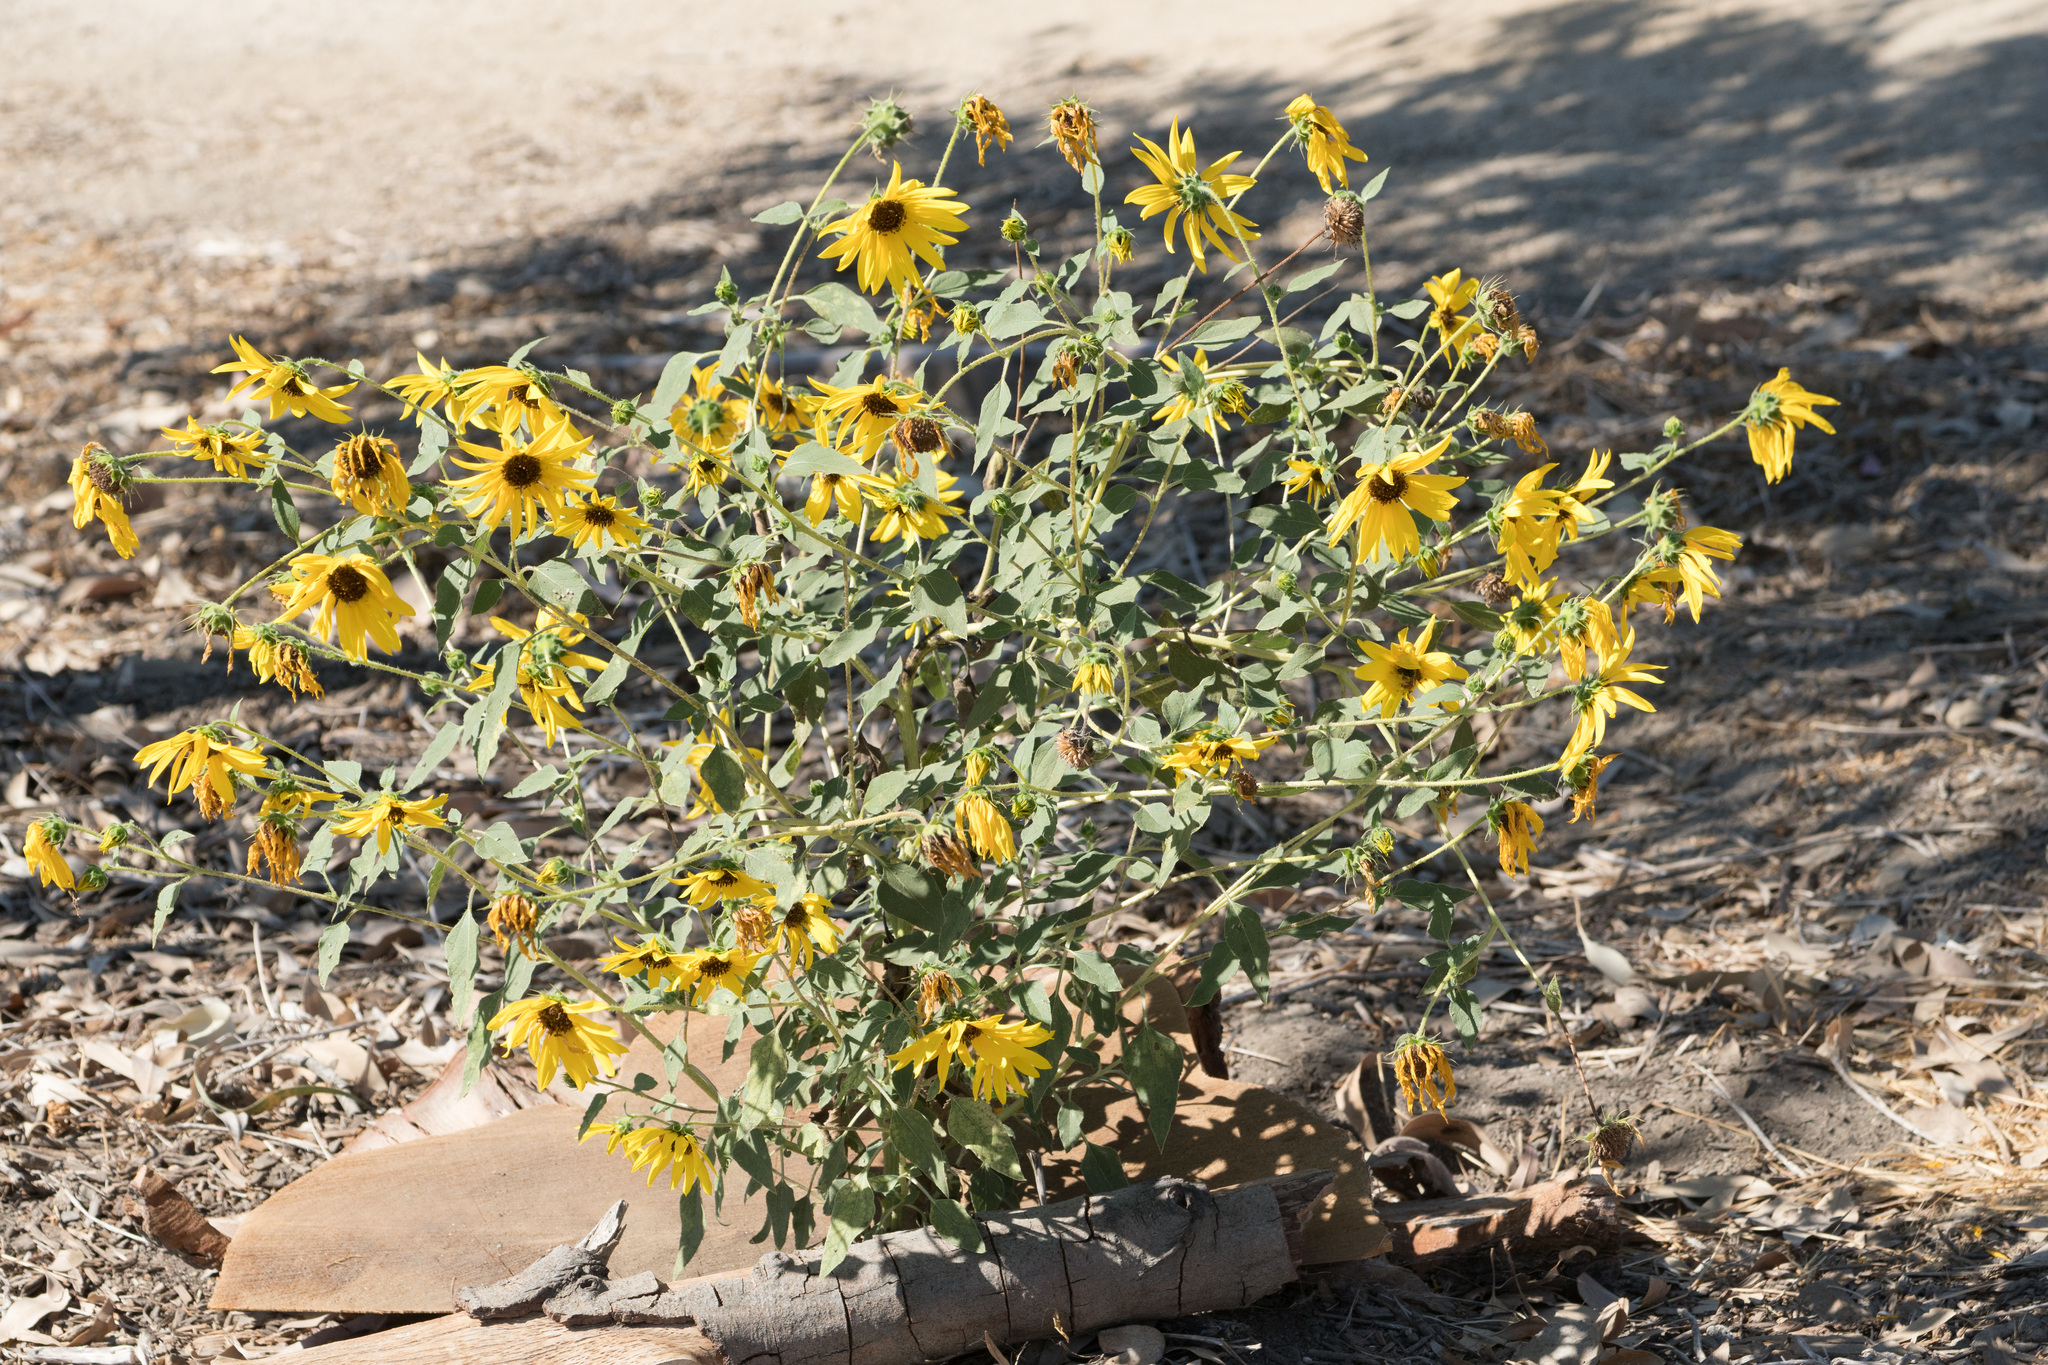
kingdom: Plantae
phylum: Tracheophyta
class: Magnoliopsida
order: Asterales
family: Asteraceae
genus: Helianthus
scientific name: Helianthus annuus
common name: Sunflower
